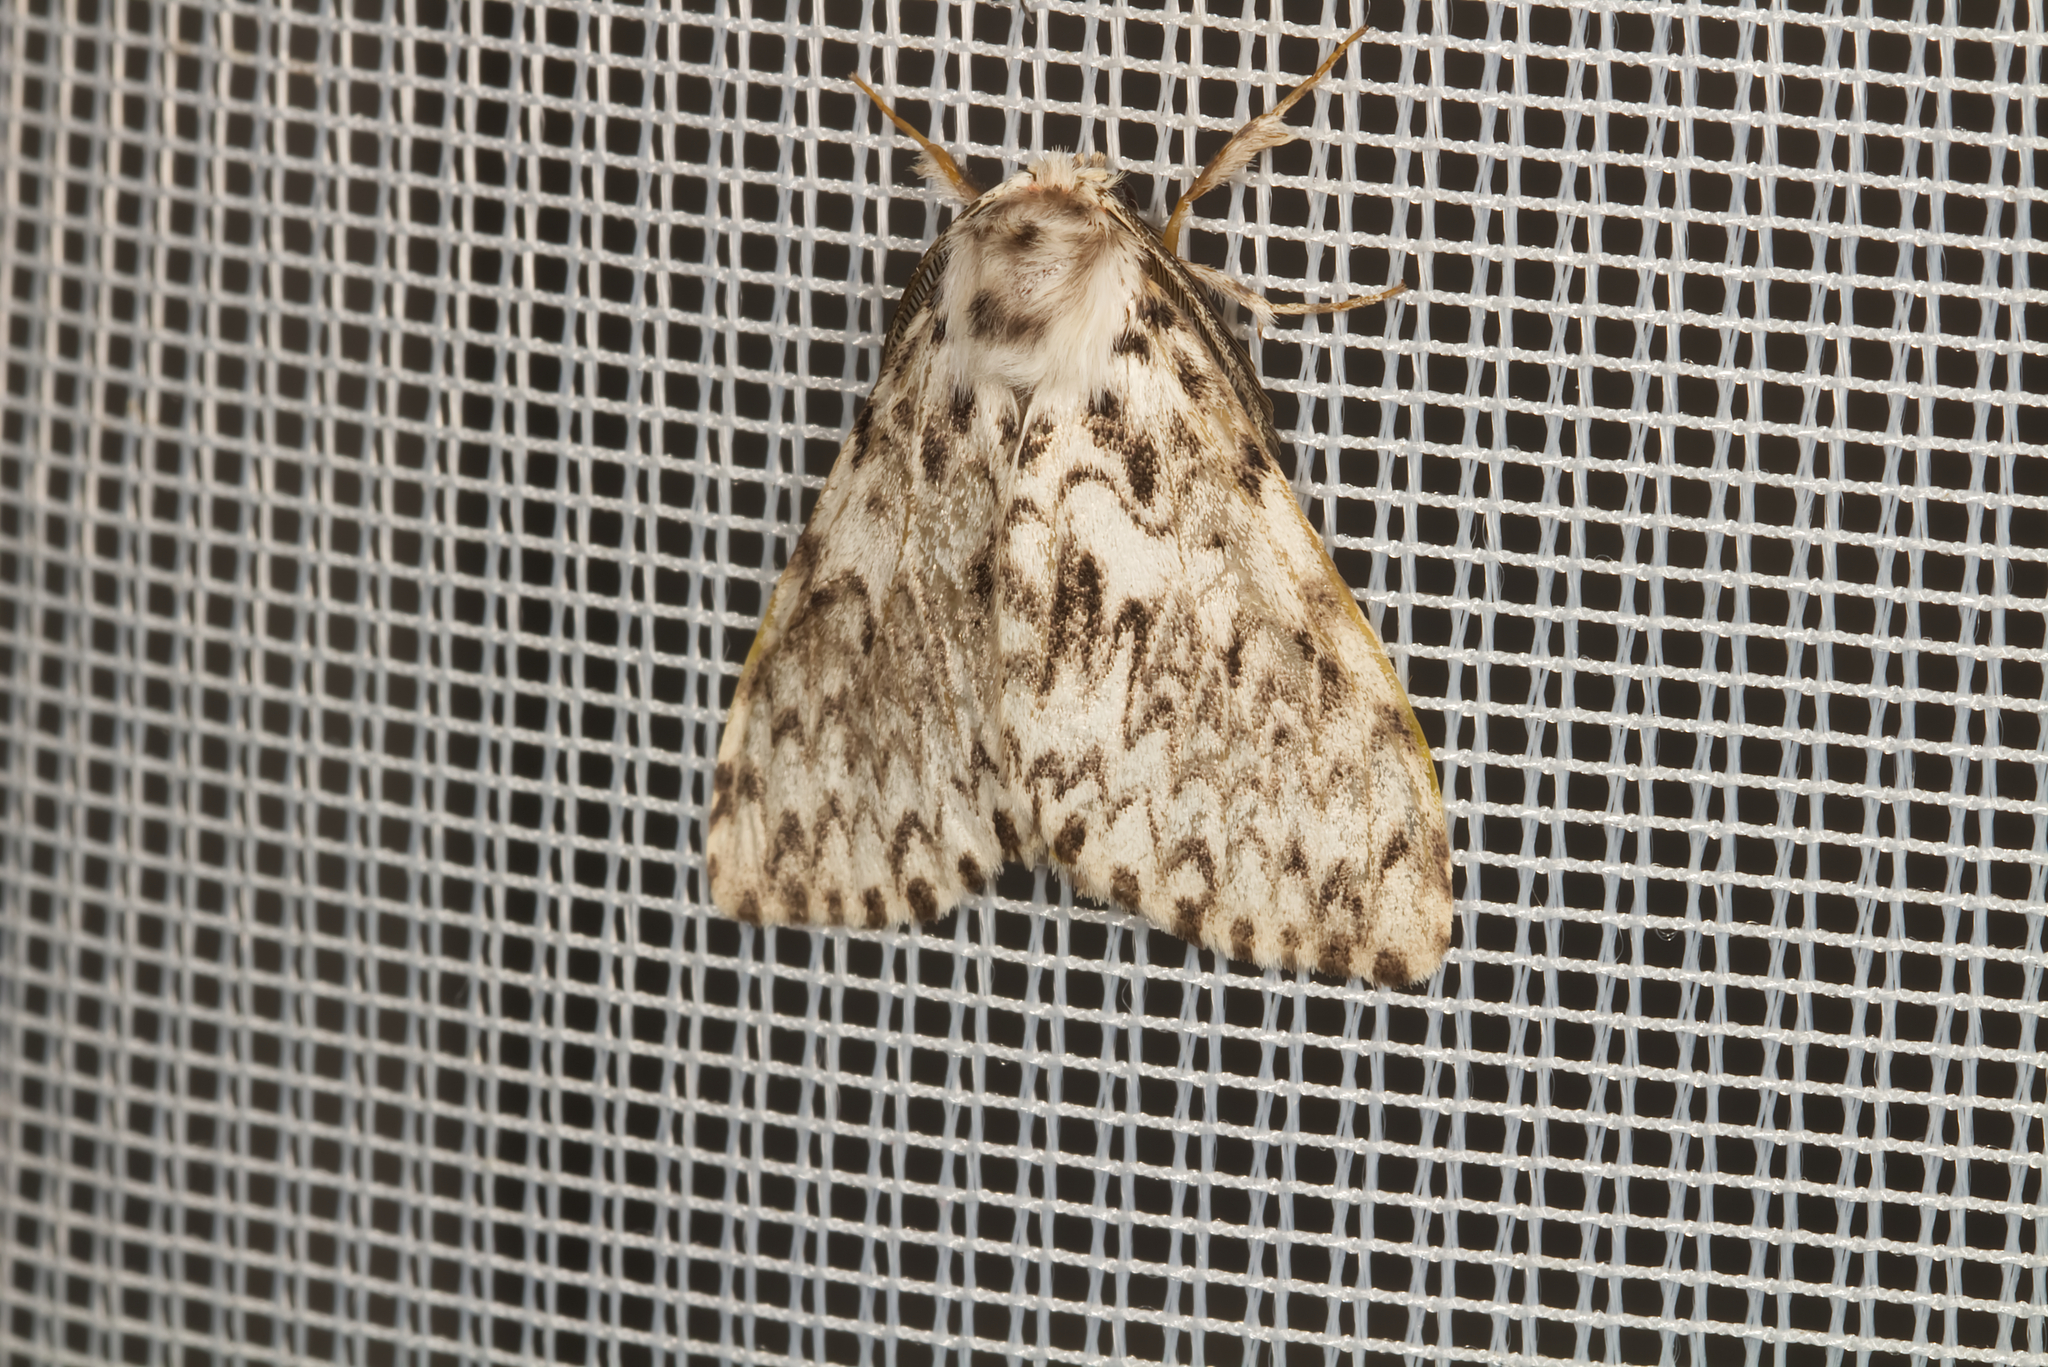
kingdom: Animalia
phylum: Arthropoda
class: Insecta
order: Lepidoptera
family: Erebidae
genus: Lymantria
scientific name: Lymantria monacha
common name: Black arches
